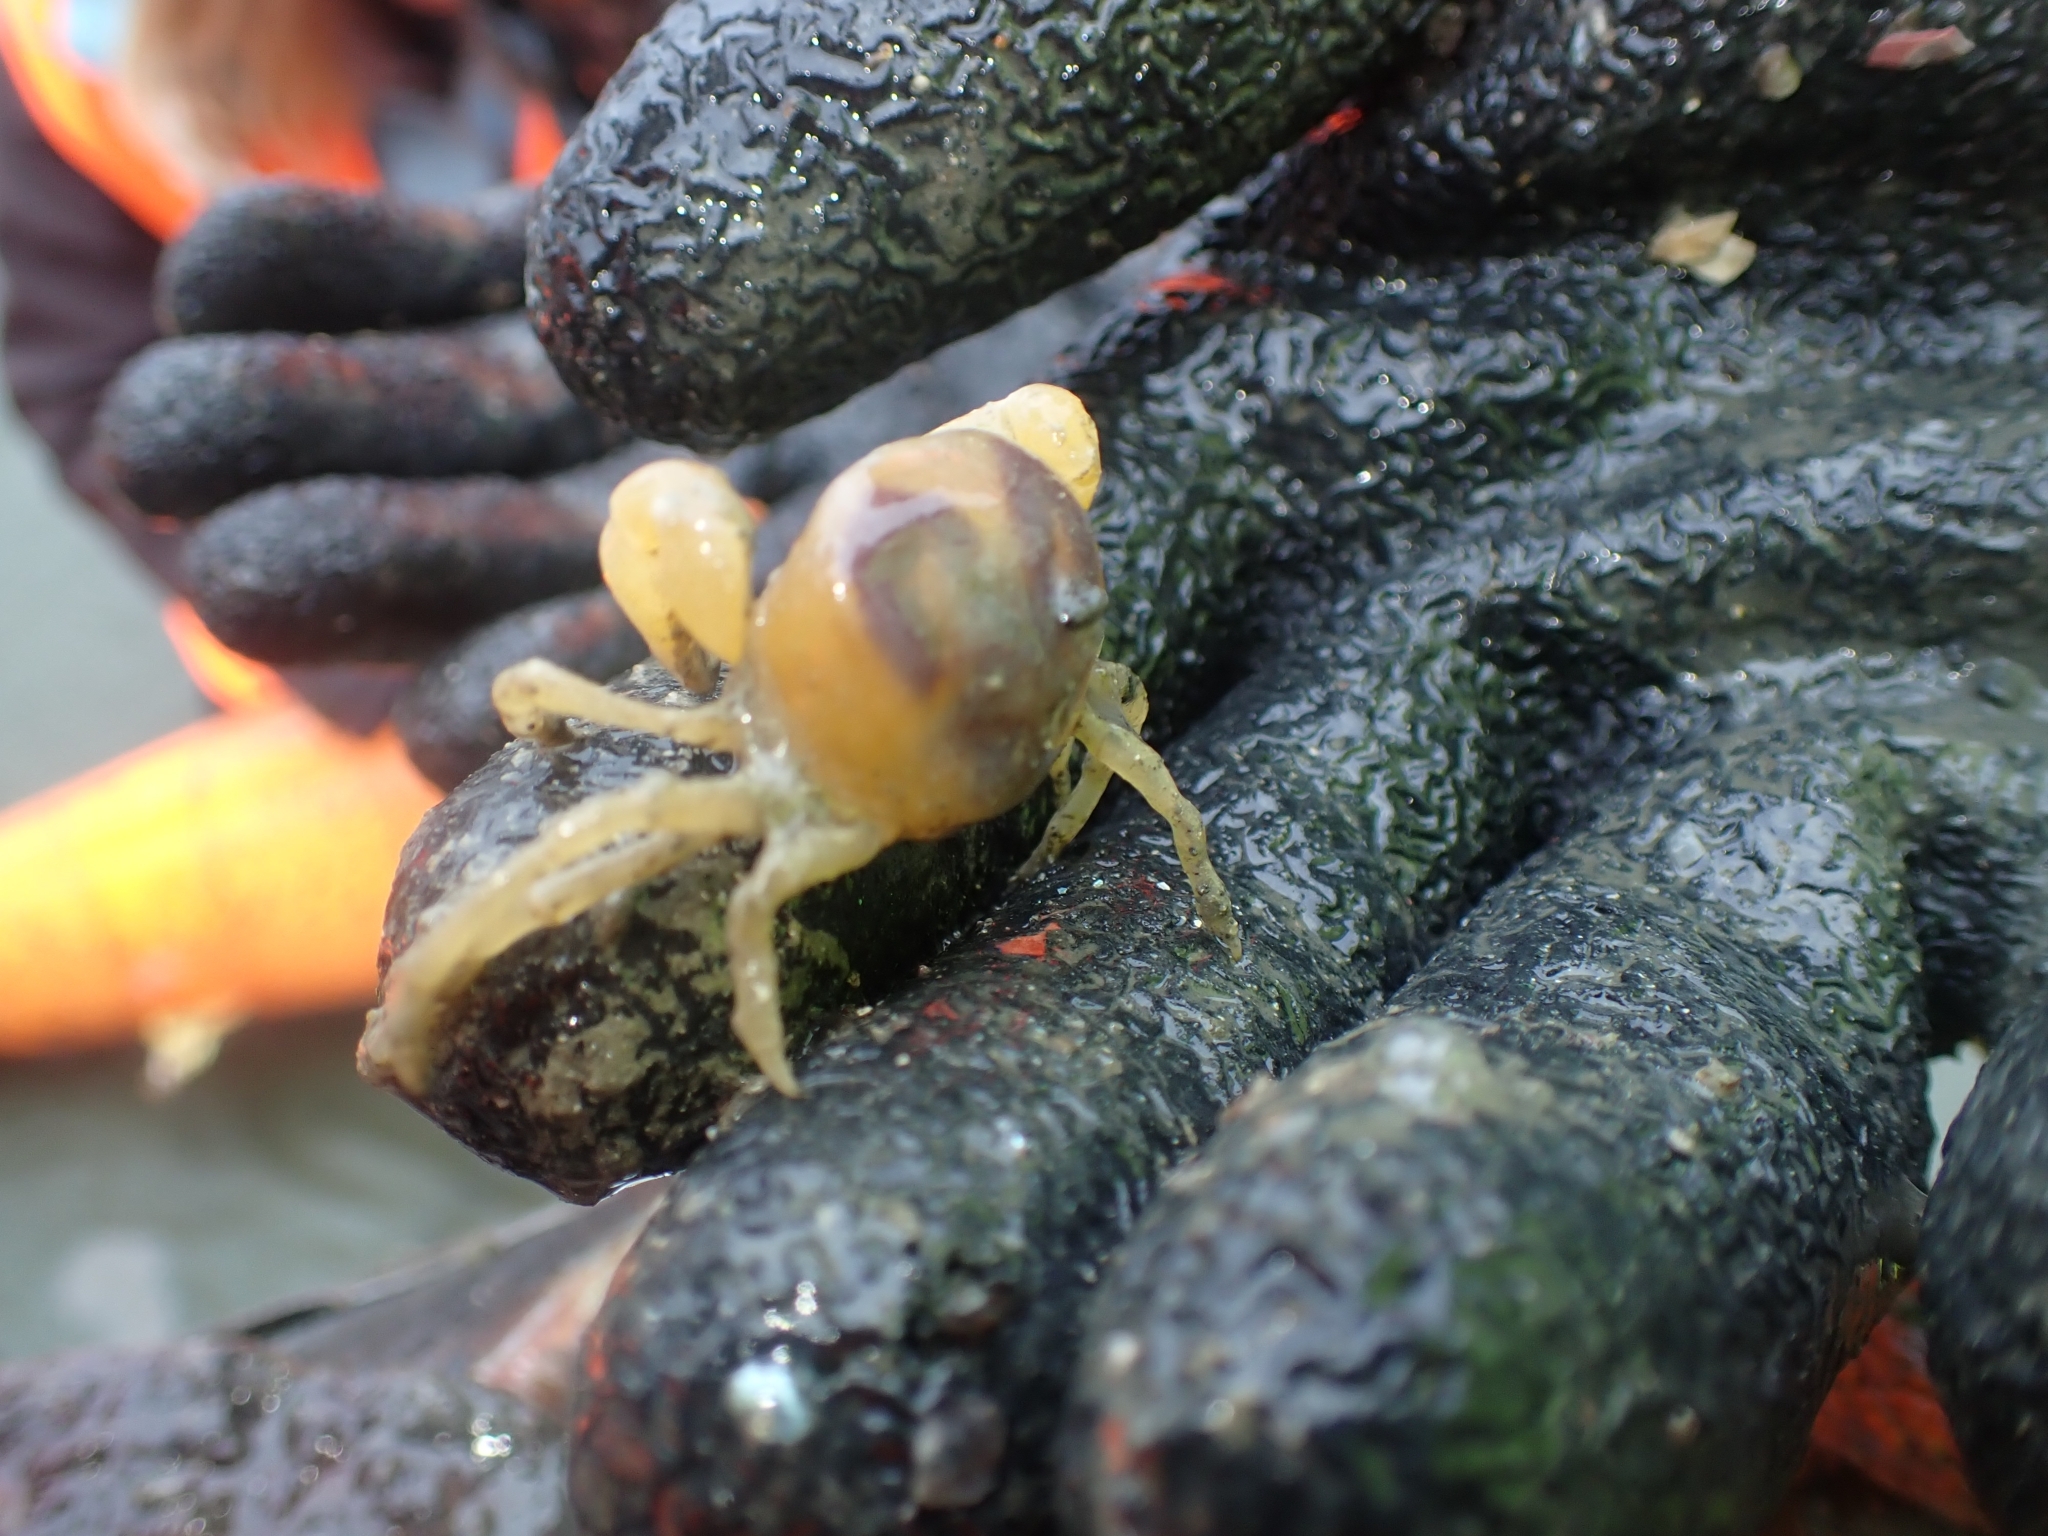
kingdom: Animalia
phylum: Arthropoda
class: Malacostraca
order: Decapoda
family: Pinnotheridae
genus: Nepinnotheres
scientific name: Nepinnotheres atrinicola
